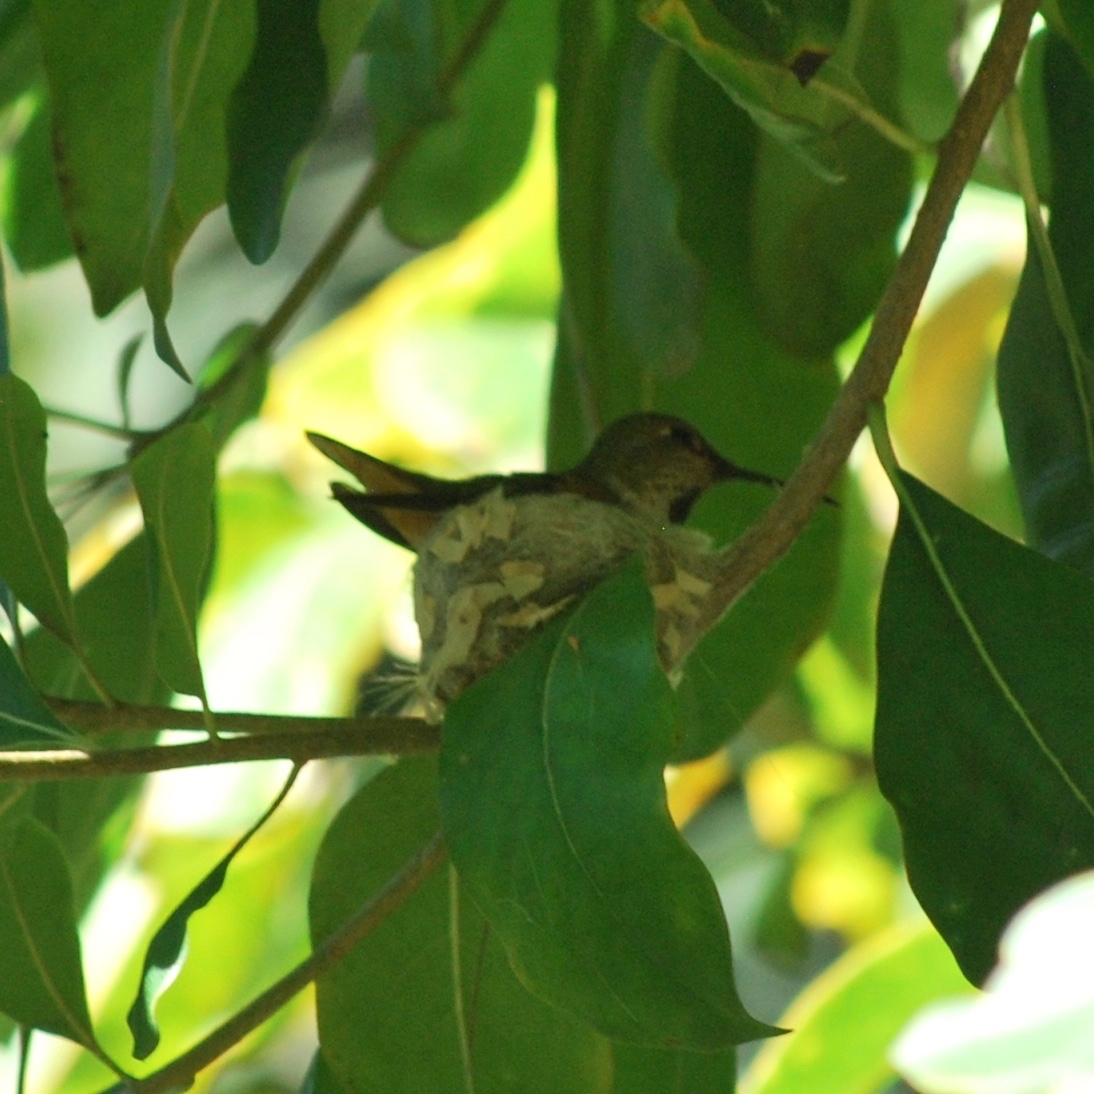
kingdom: Animalia
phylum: Chordata
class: Aves
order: Apodiformes
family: Trochilidae
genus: Selasphorus
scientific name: Selasphorus sasin
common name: Allen's hummingbird
